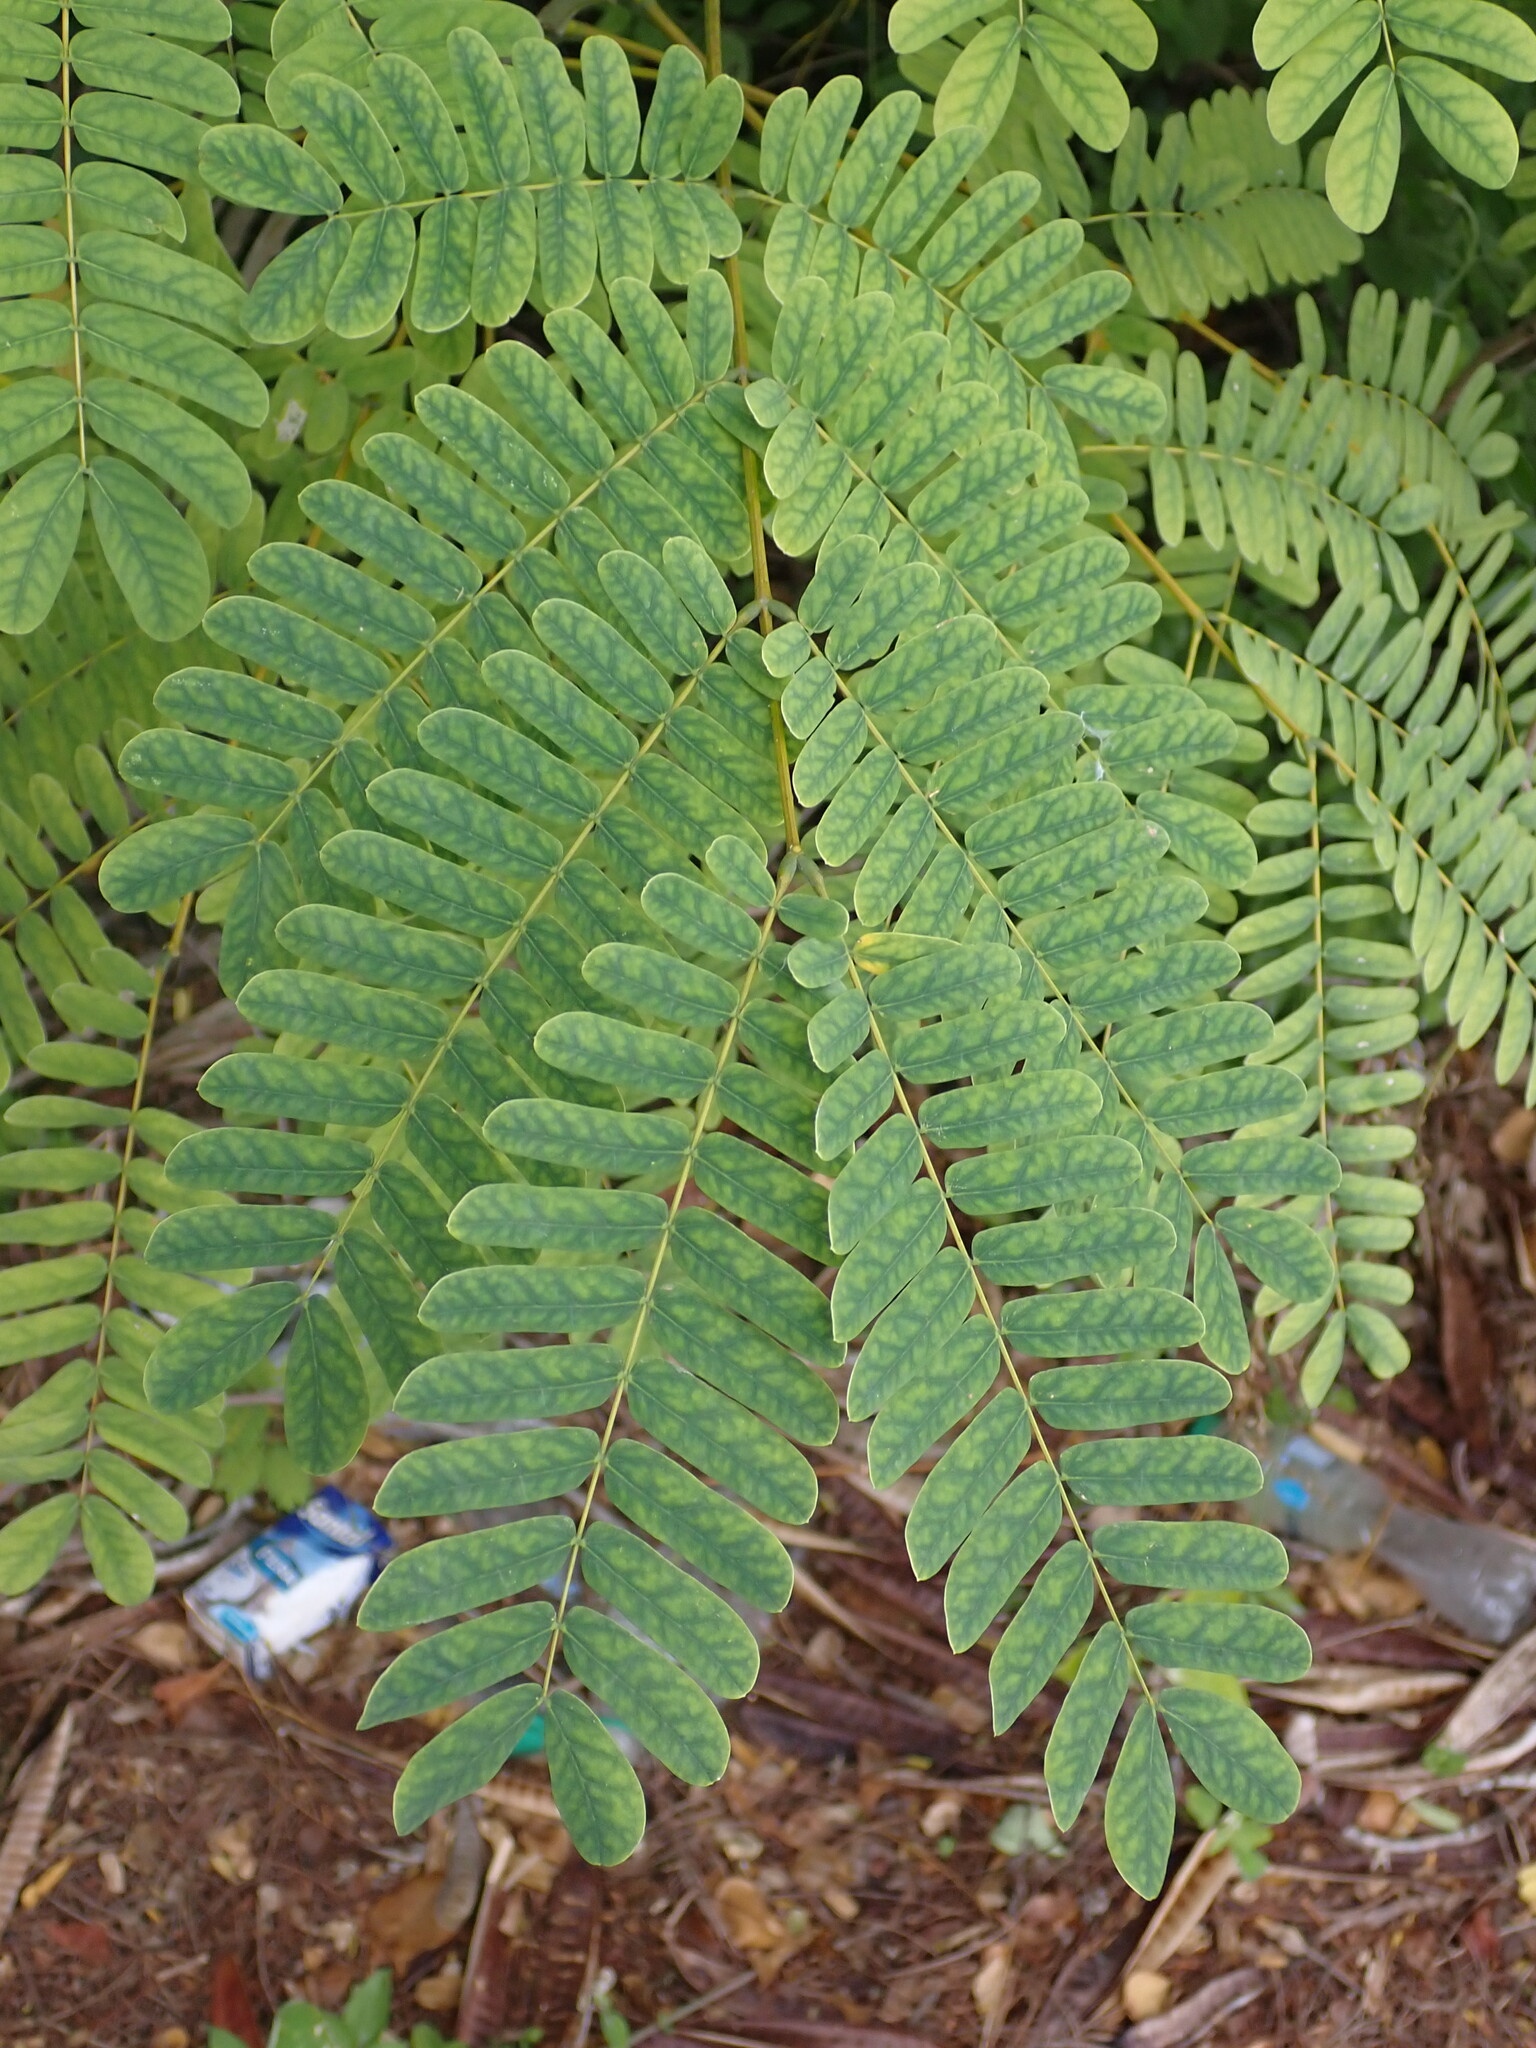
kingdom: Plantae
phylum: Tracheophyta
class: Magnoliopsida
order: Fabales
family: Fabaceae
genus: Albizia
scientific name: Albizia lebbeck
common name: Woman's tongue
